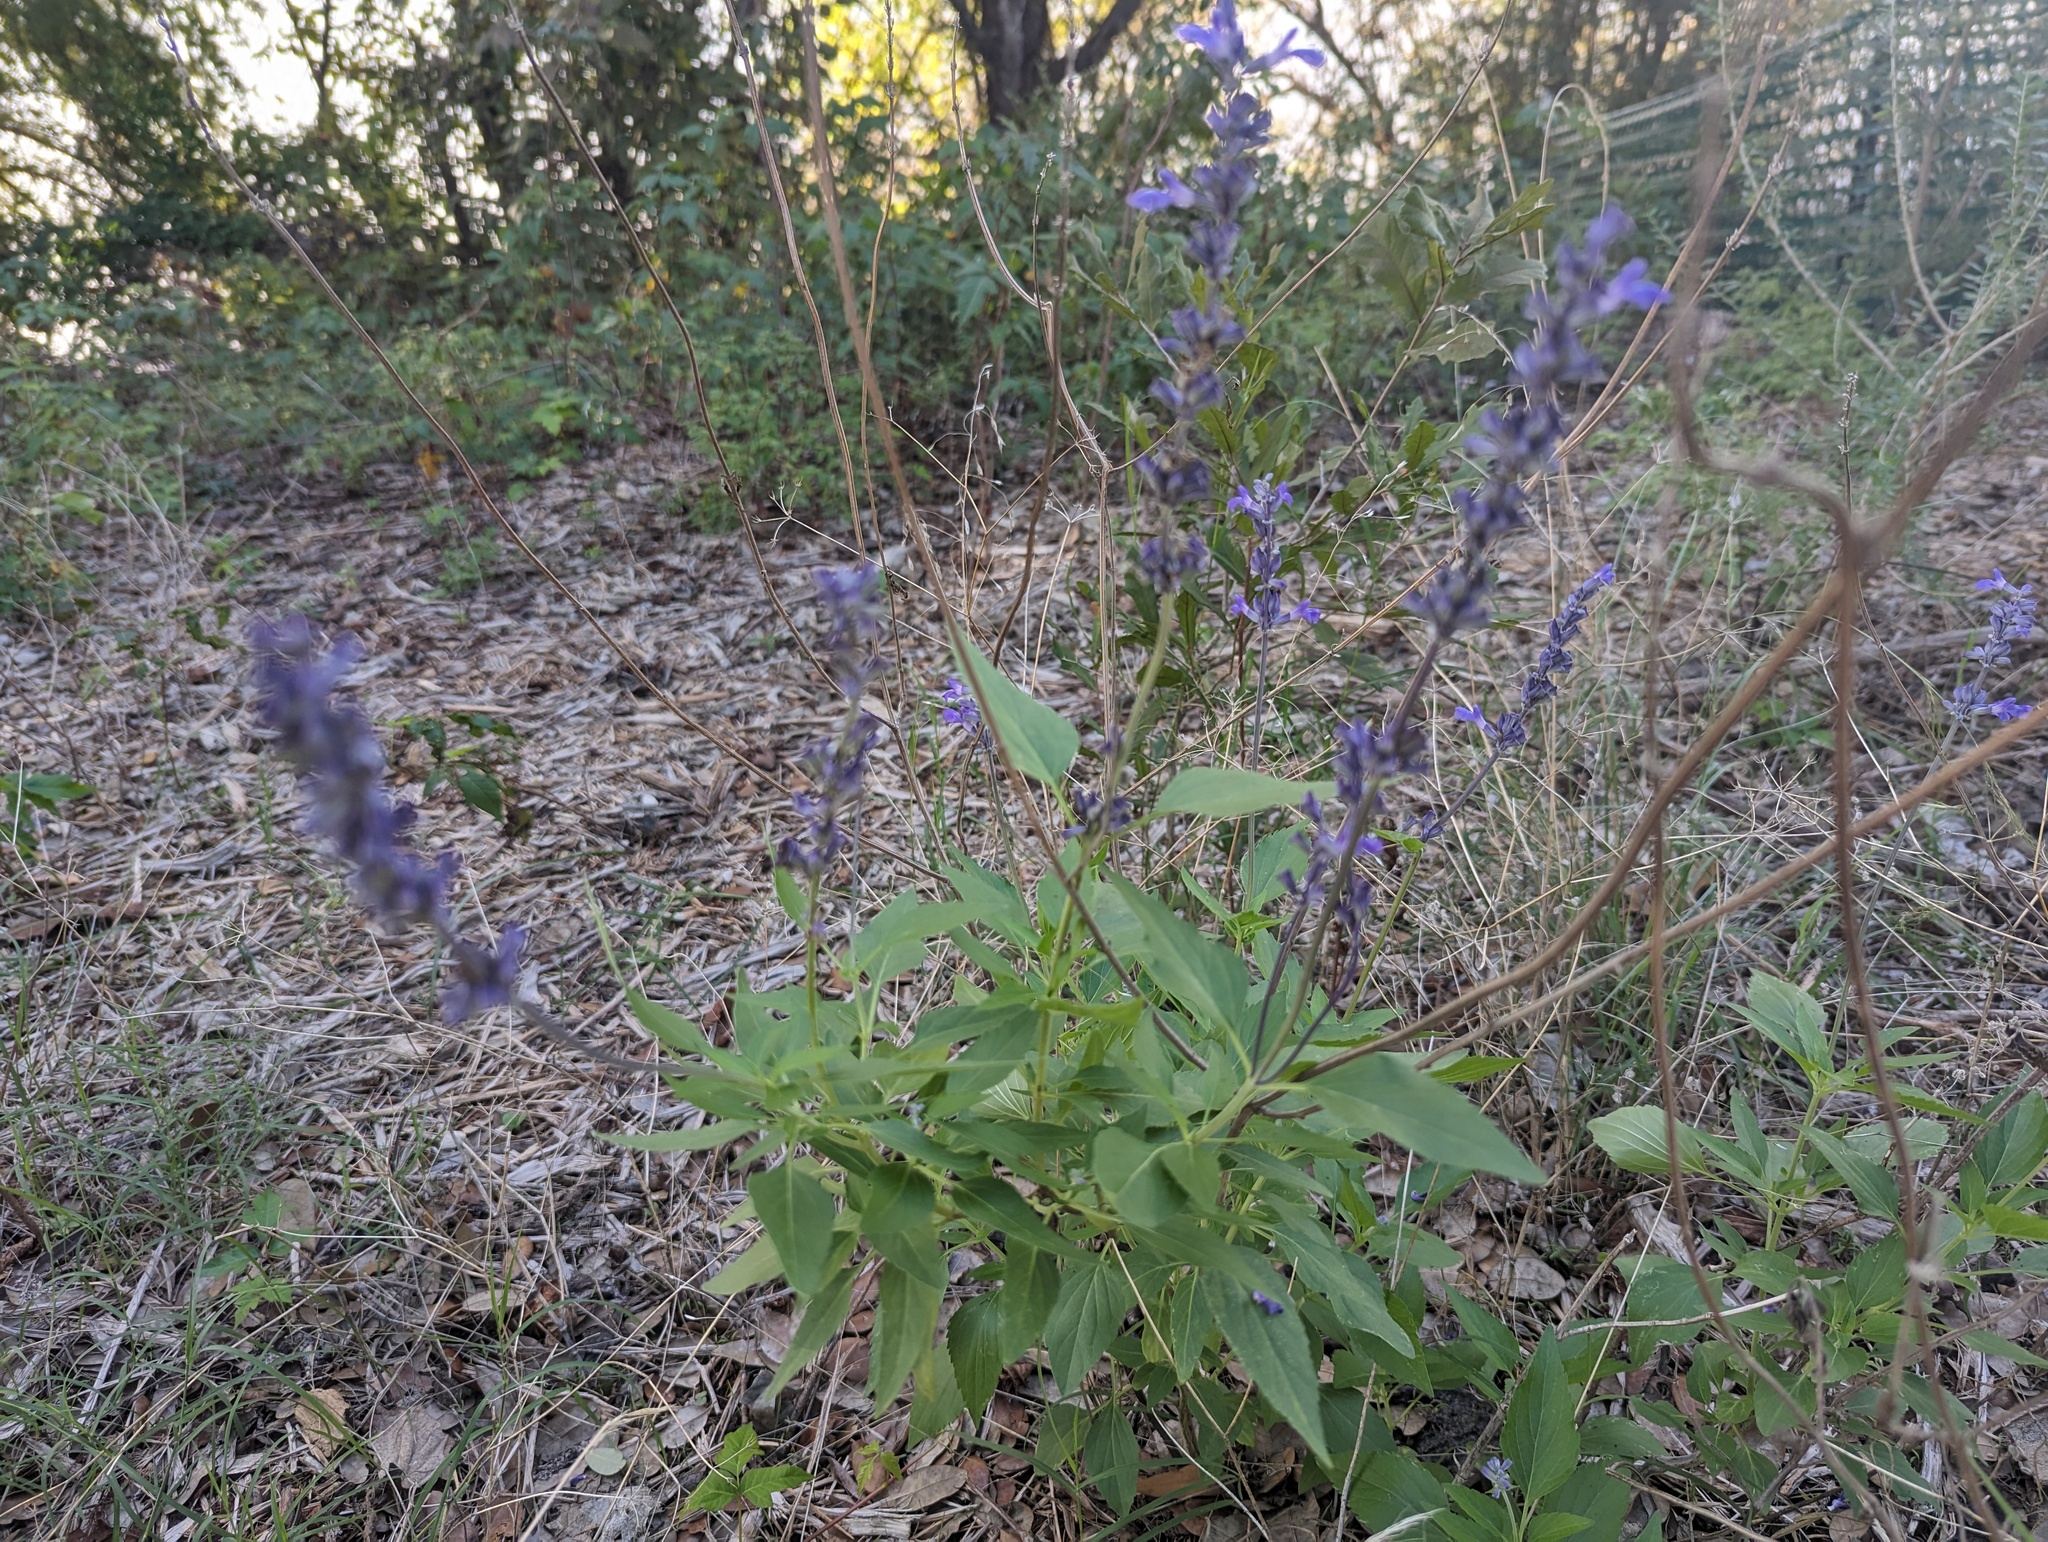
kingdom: Plantae
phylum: Tracheophyta
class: Magnoliopsida
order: Lamiales
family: Lamiaceae
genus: Salvia
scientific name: Salvia farinacea
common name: Mealy sage
